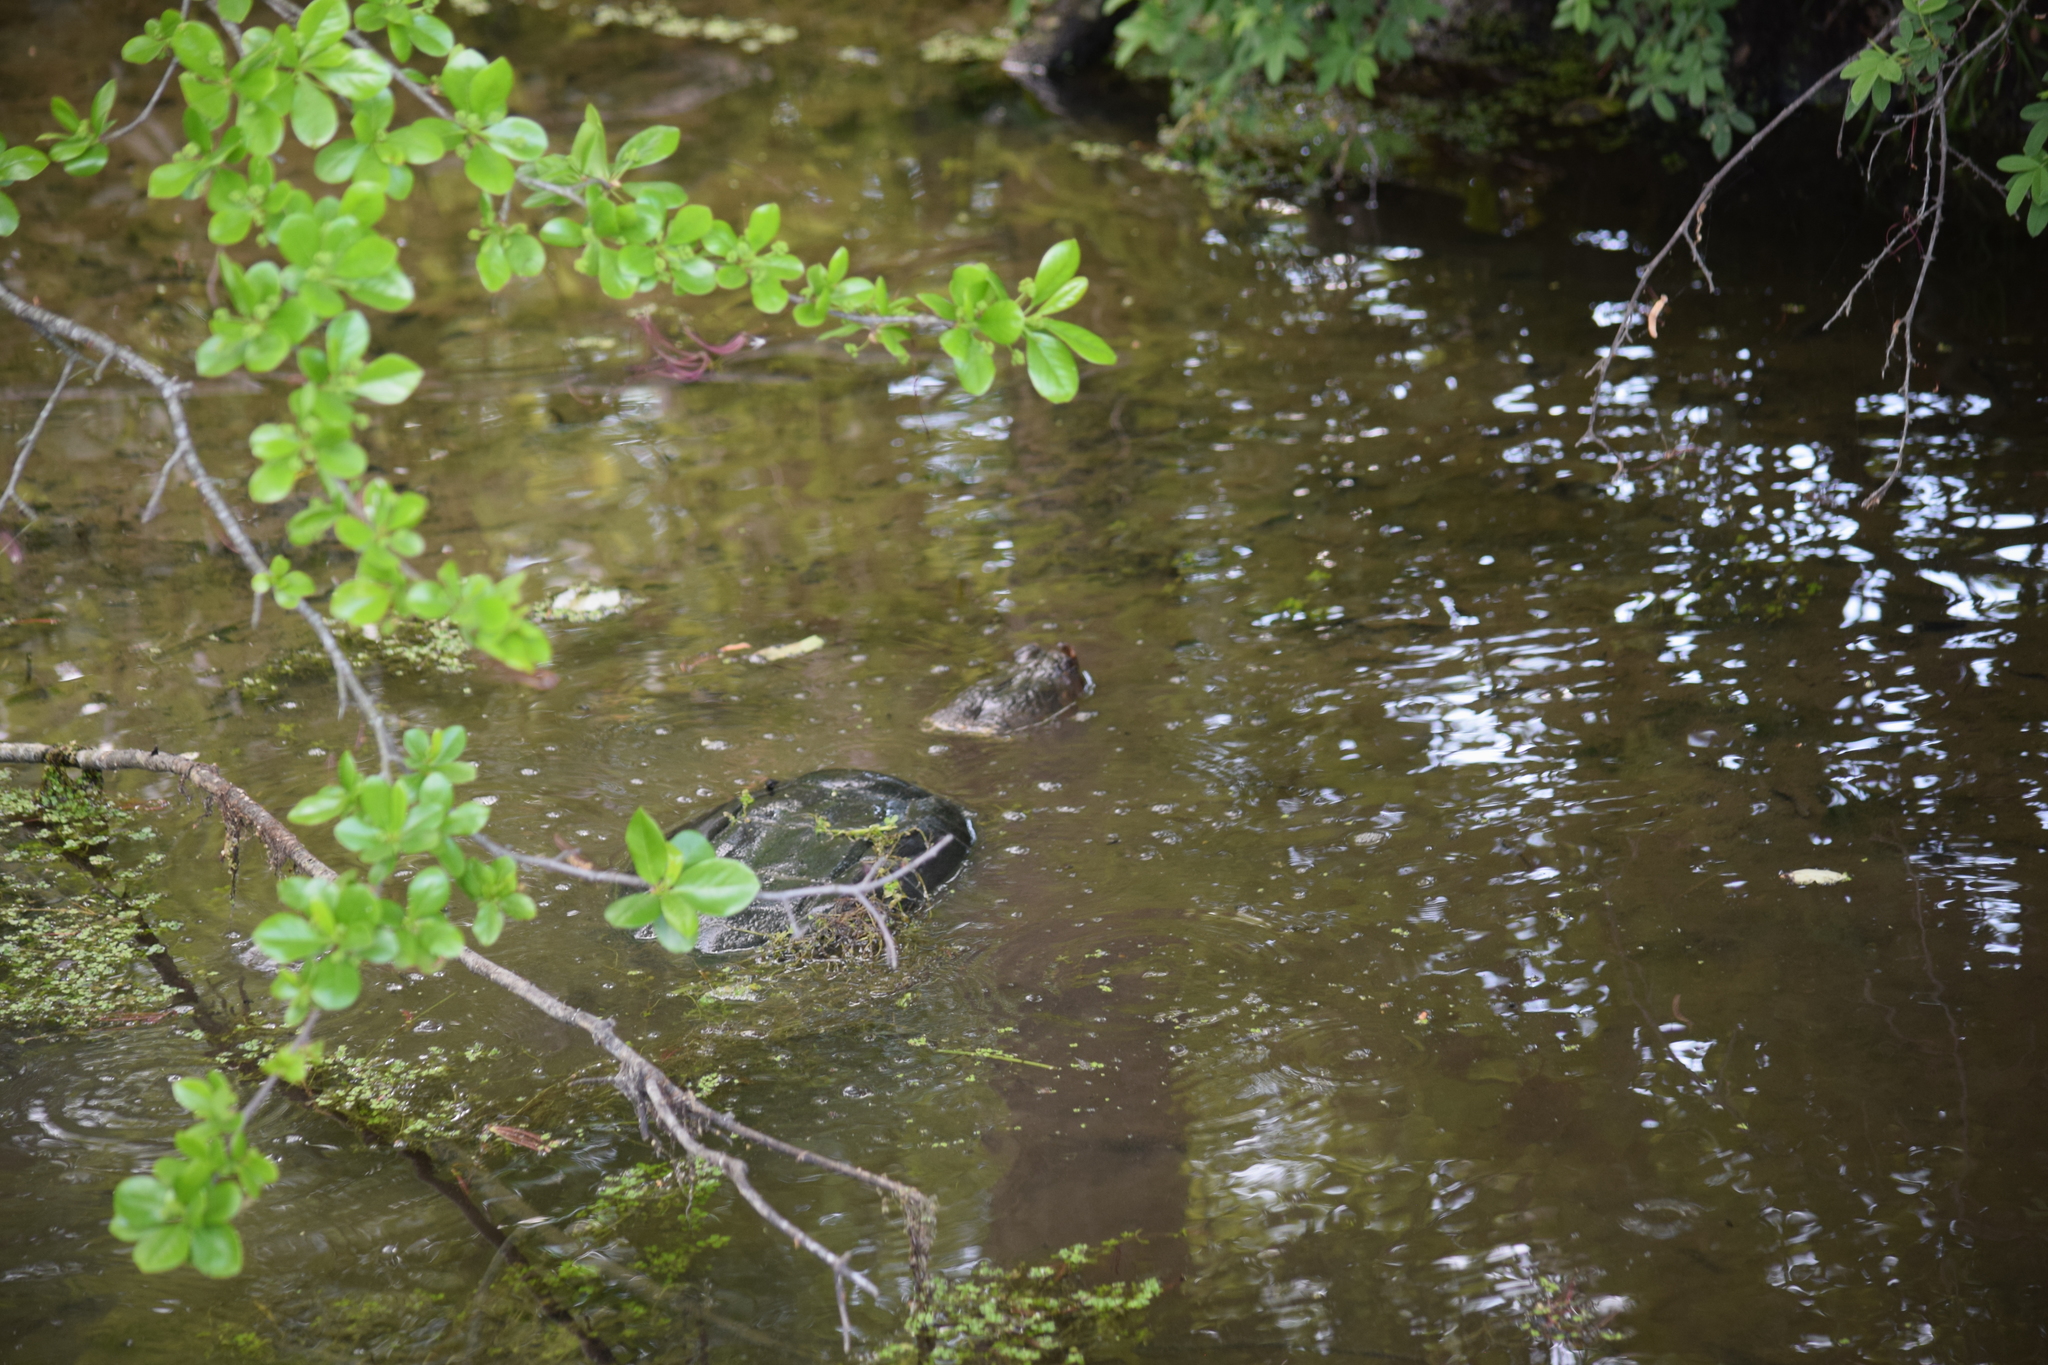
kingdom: Animalia
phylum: Chordata
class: Testudines
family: Chelydridae
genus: Chelydra
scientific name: Chelydra serpentina
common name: Common snapping turtle
